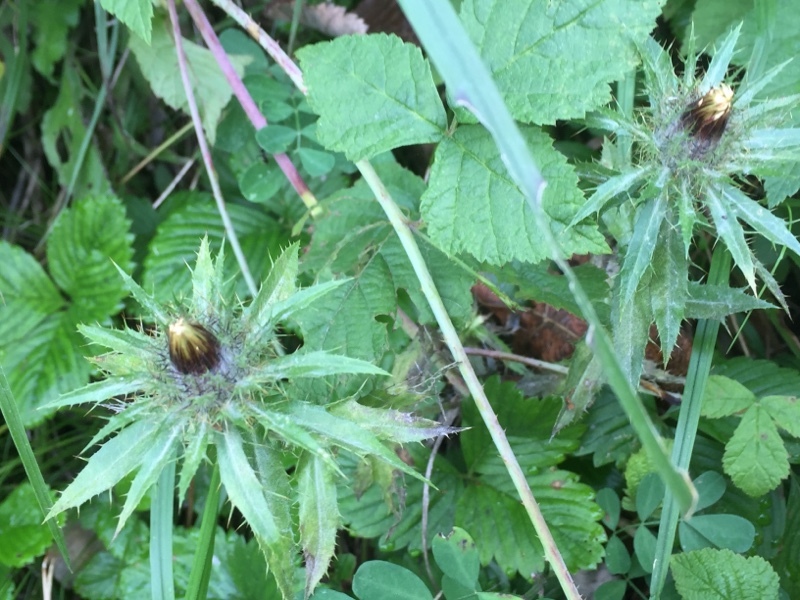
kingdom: Plantae
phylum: Tracheophyta
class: Magnoliopsida
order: Asterales
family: Asteraceae
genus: Carlina
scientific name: Carlina acaulis
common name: Stemless carline thistle
